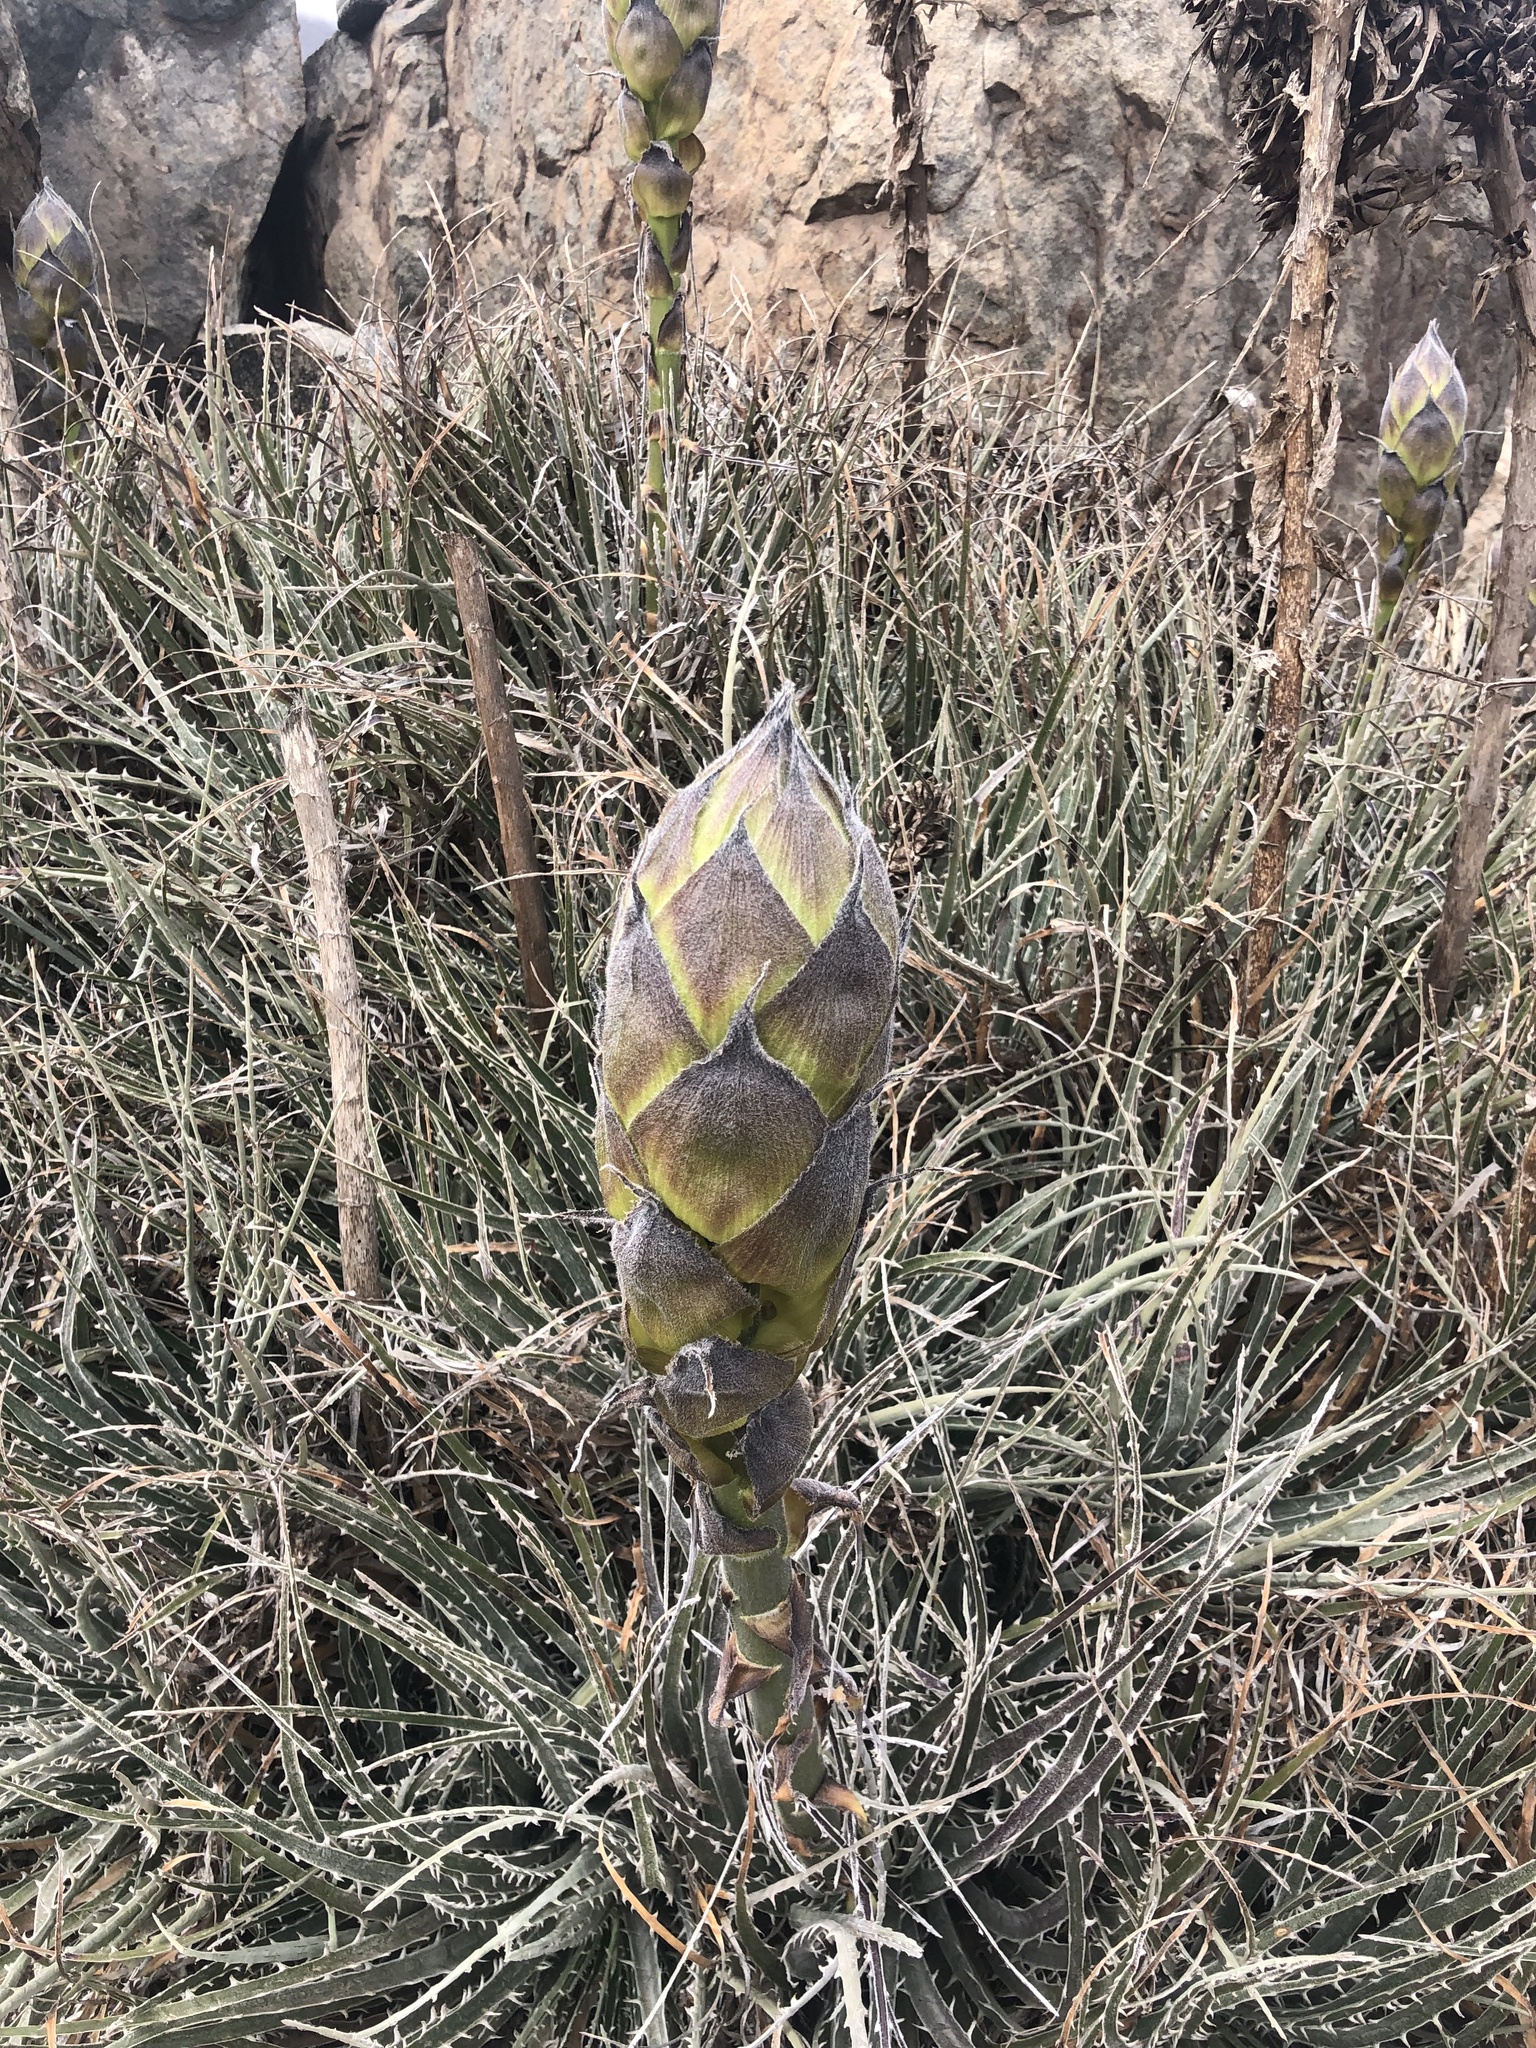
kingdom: Plantae
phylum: Tracheophyta
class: Liliopsida
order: Poales
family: Bromeliaceae
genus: Puya
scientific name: Puya gilmartiniae
